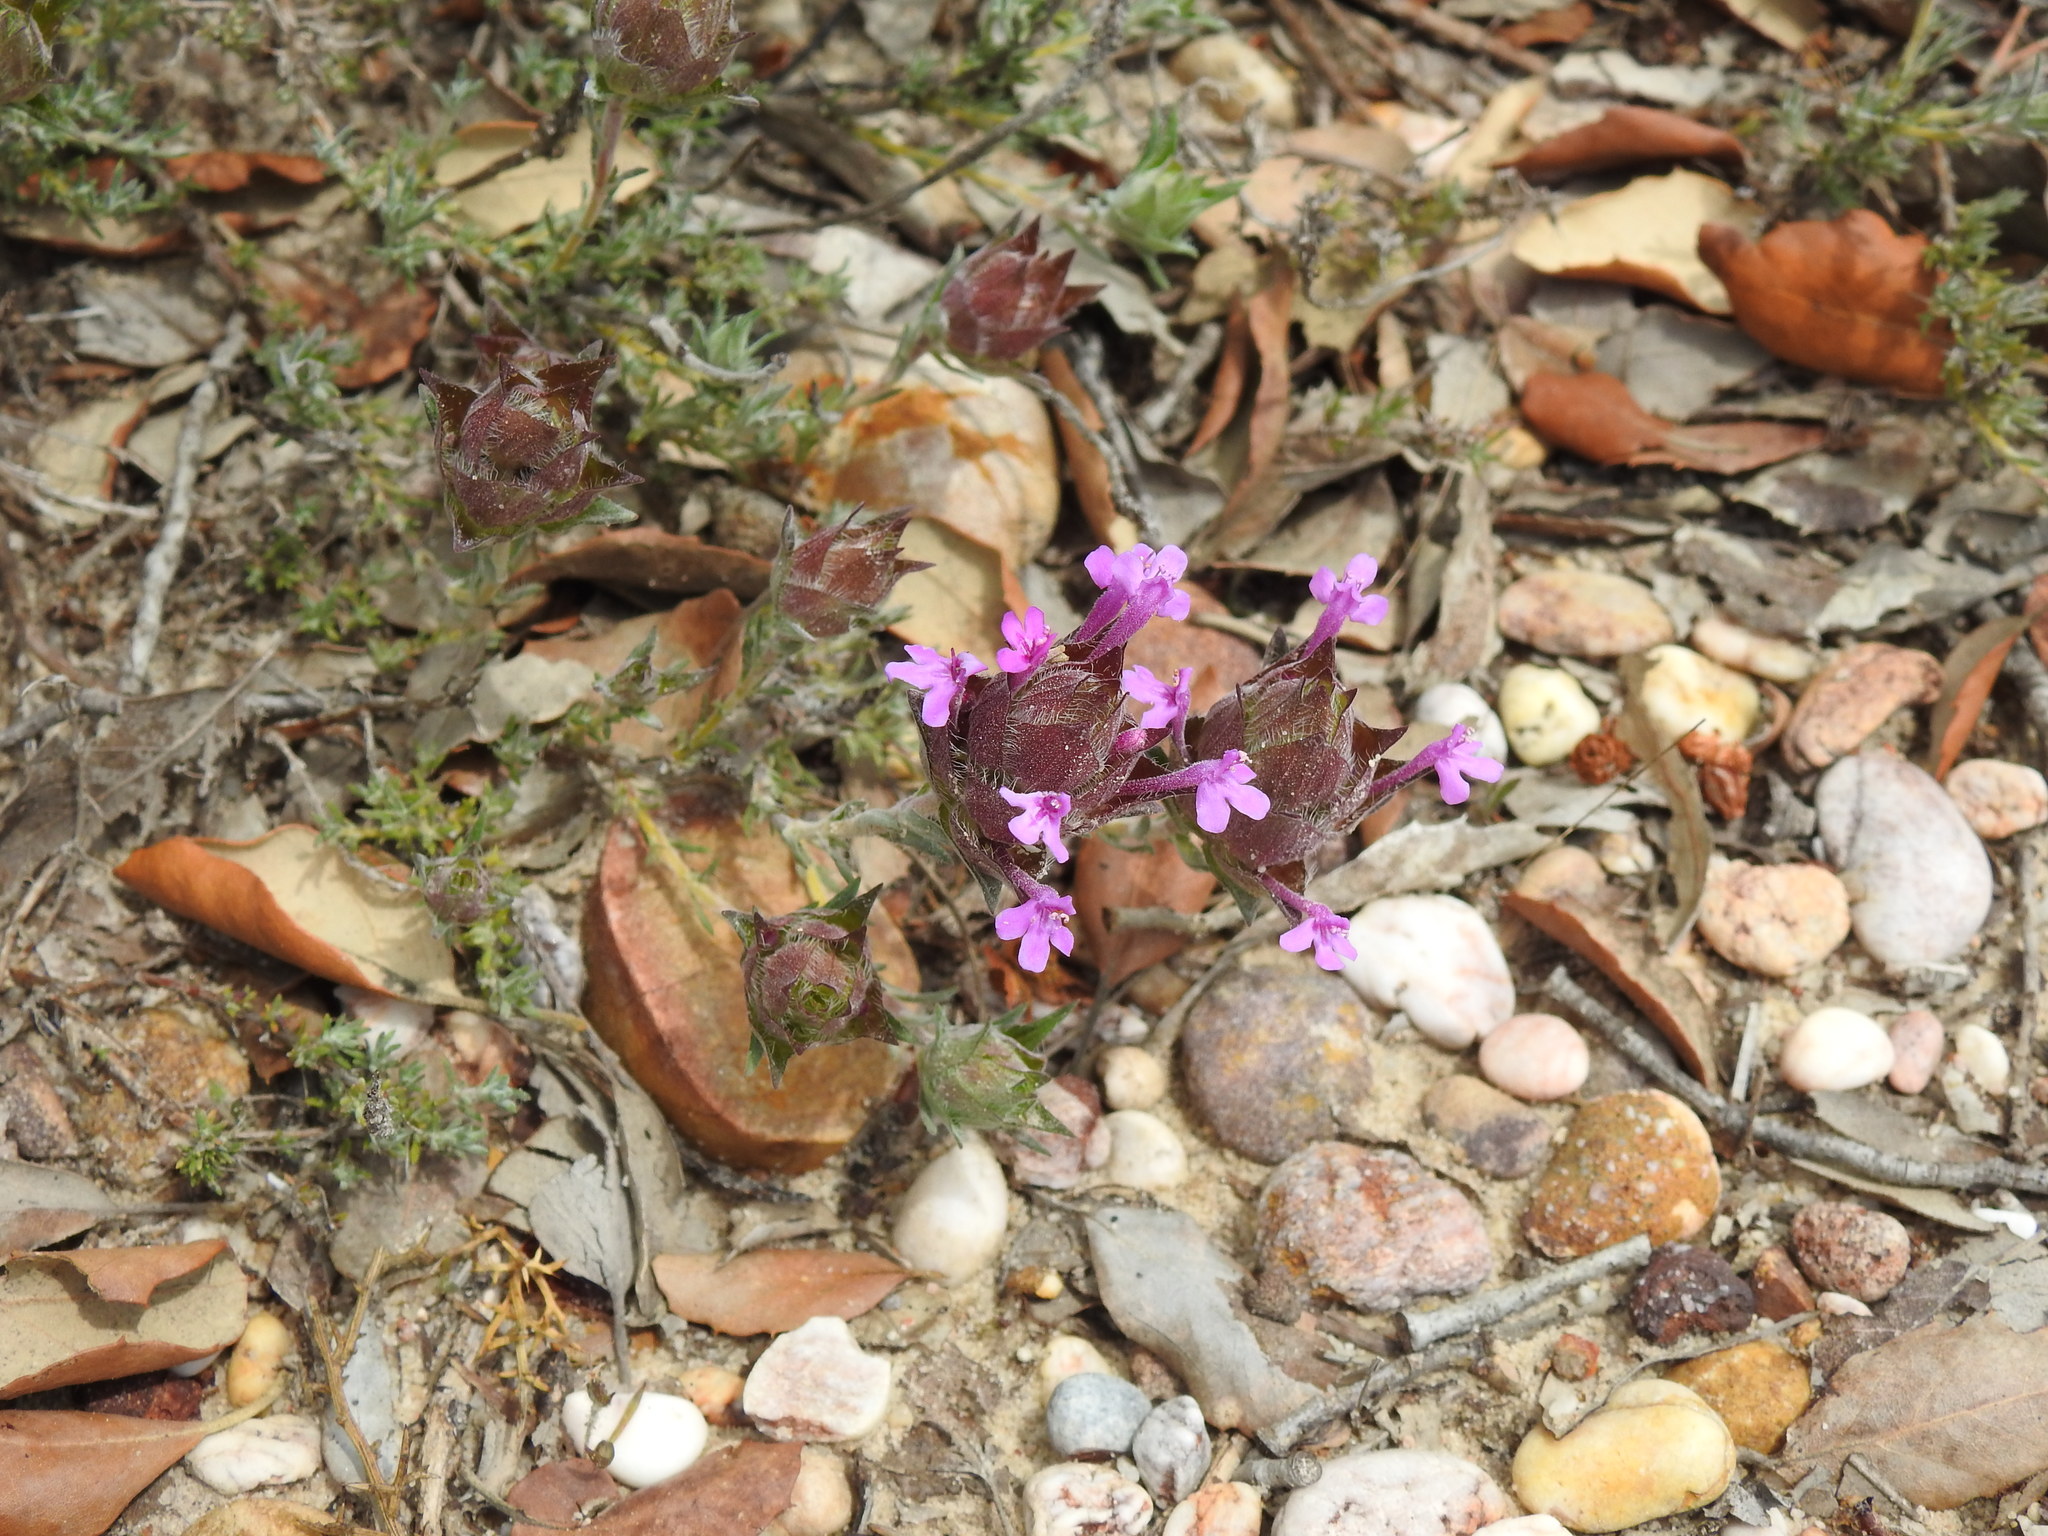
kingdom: Plantae
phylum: Tracheophyta
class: Magnoliopsida
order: Lamiales
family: Lamiaceae
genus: Thymus
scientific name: Thymus lotocephalus
